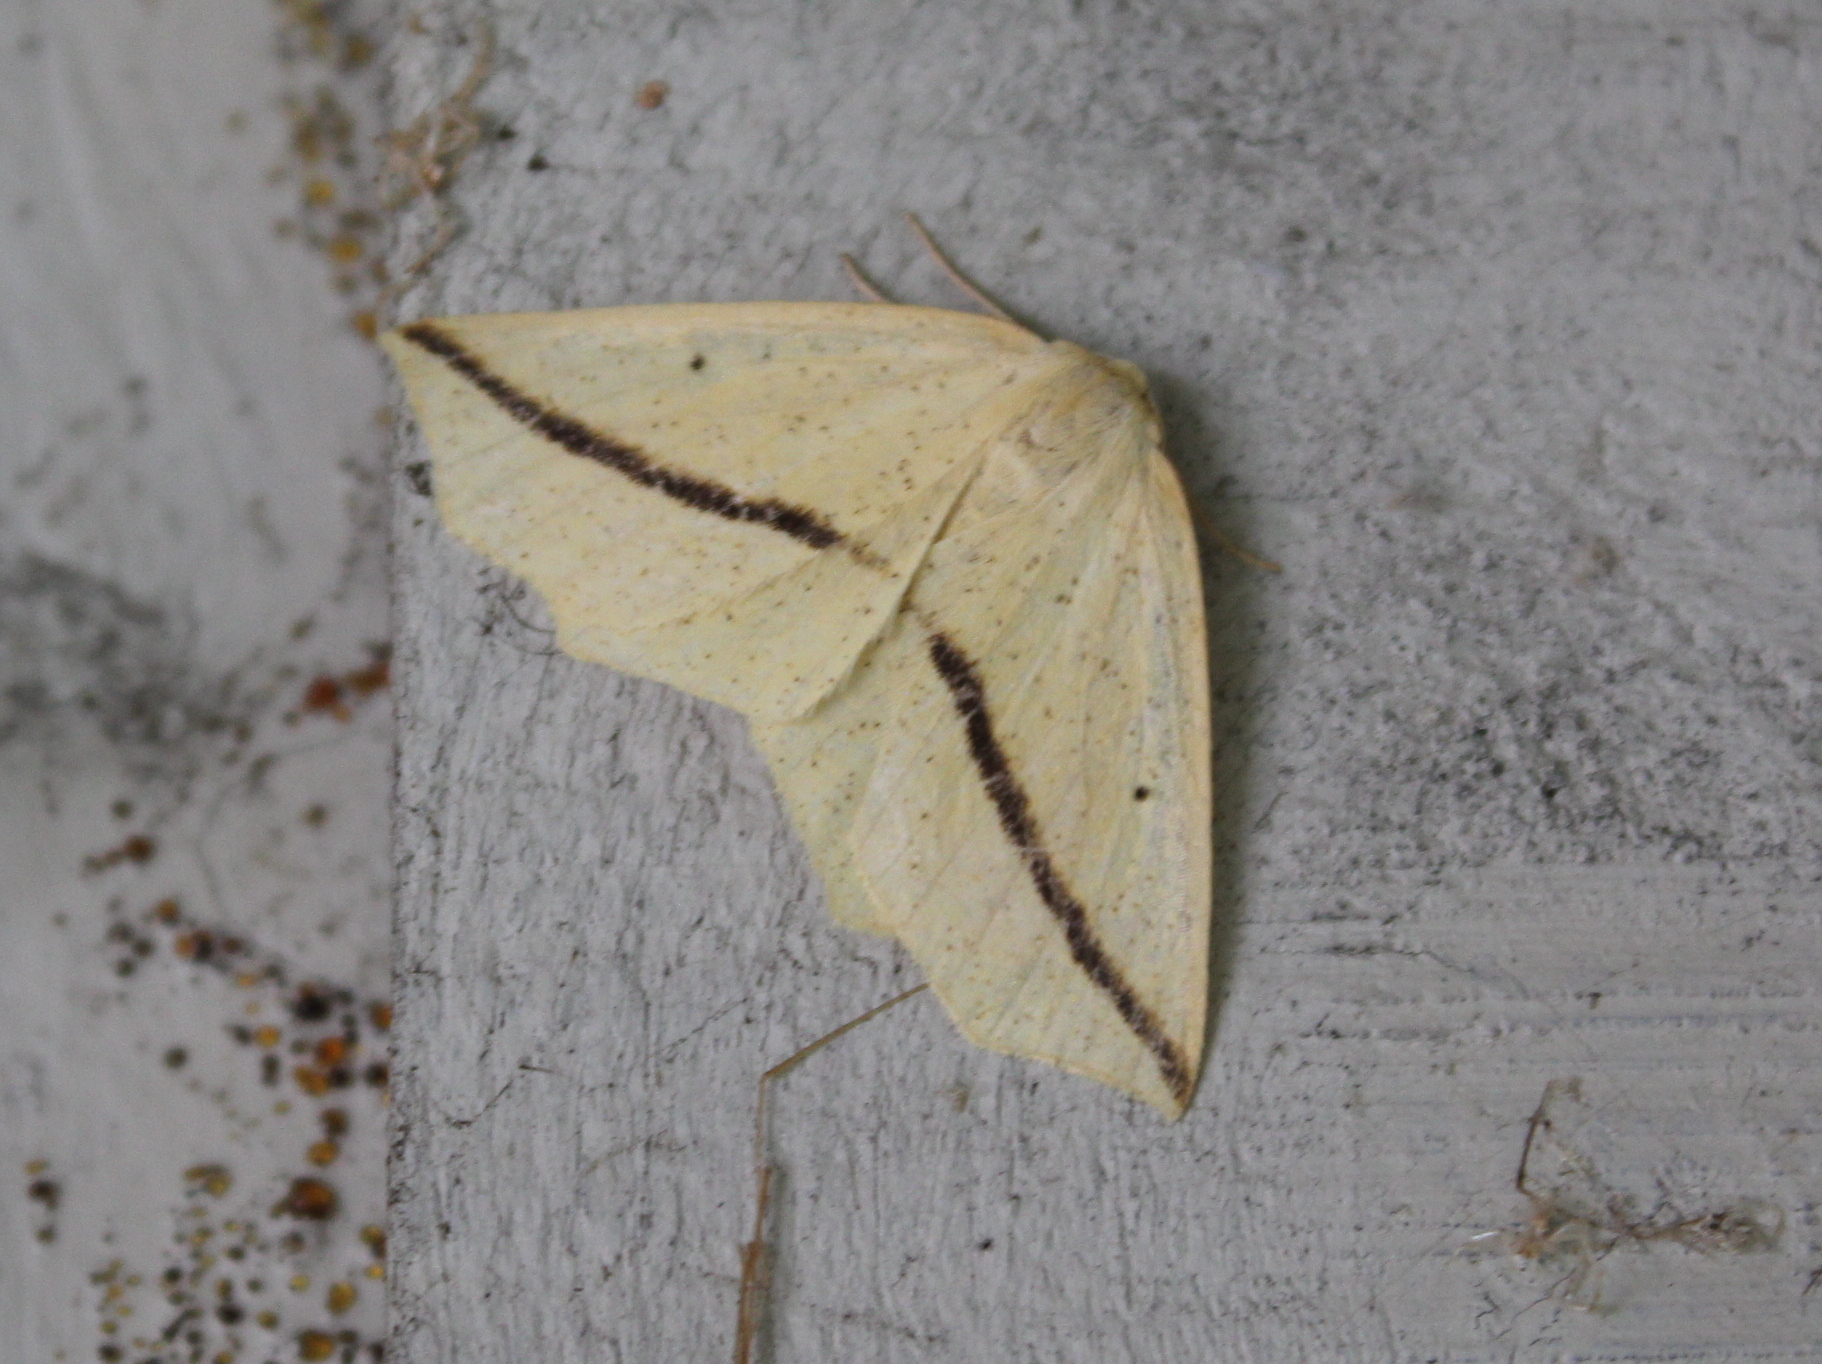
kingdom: Animalia
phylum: Arthropoda
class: Insecta
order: Lepidoptera
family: Geometridae
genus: Tetracis
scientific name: Tetracis crocallata
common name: Yellow slant-line
